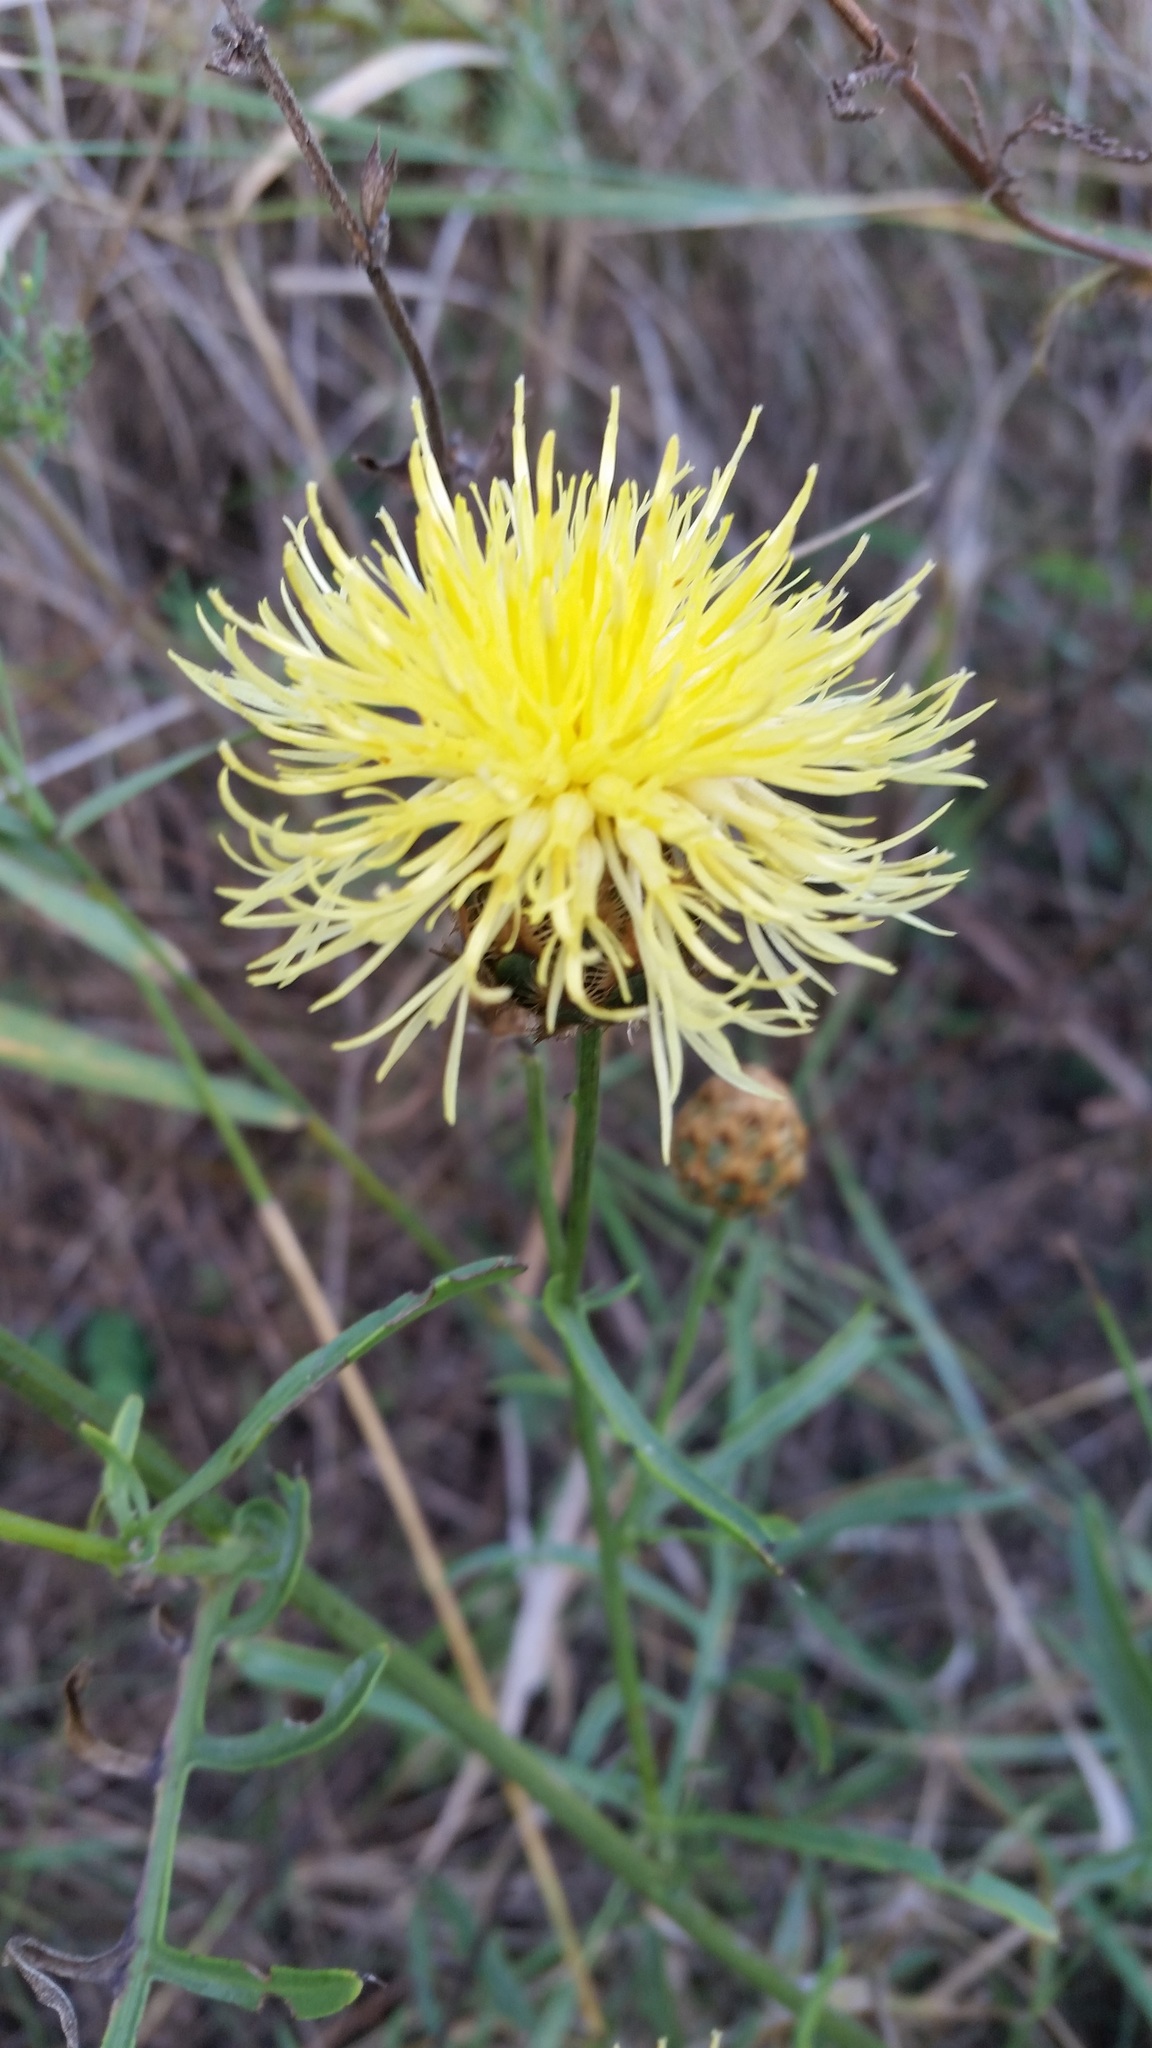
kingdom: Plantae
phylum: Tracheophyta
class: Magnoliopsida
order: Asterales
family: Asteraceae
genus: Centaurea
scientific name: Centaurea orientalis
